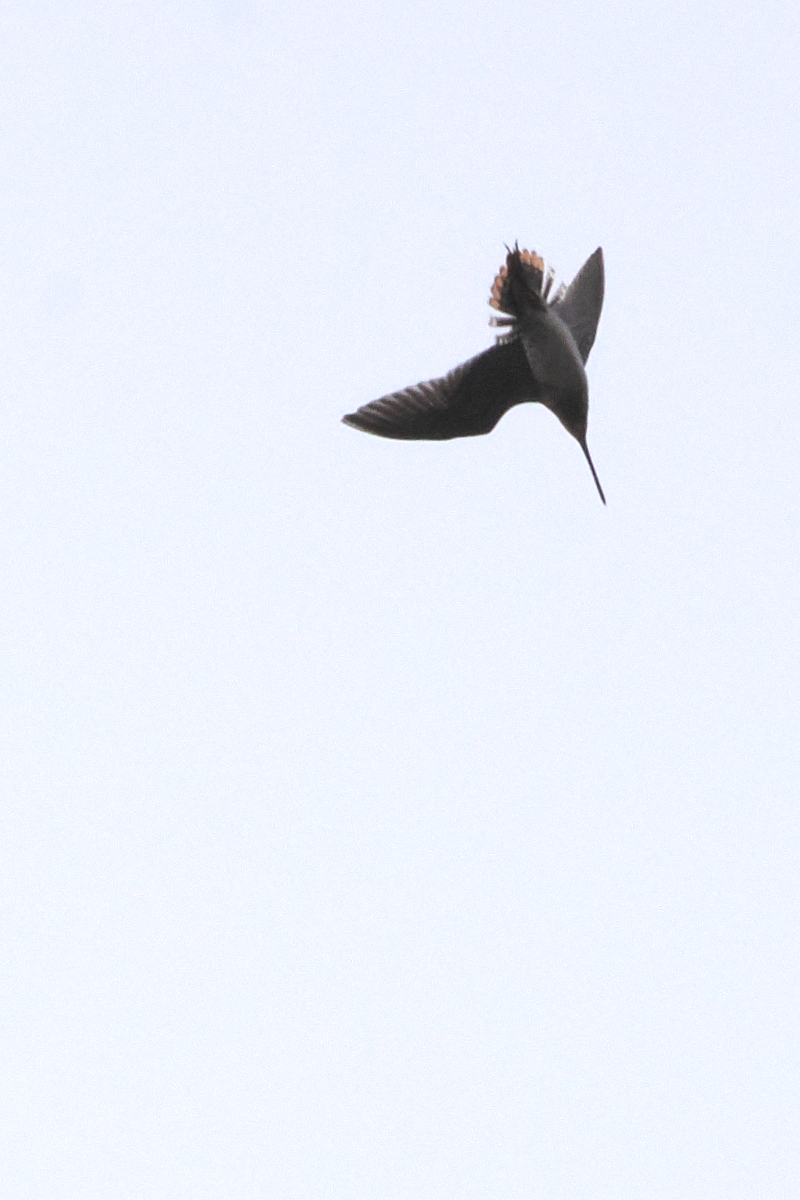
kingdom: Animalia
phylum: Chordata
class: Aves
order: Charadriiformes
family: Scolopacidae
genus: Gallinago
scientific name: Gallinago delicata
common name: Wilson's snipe
